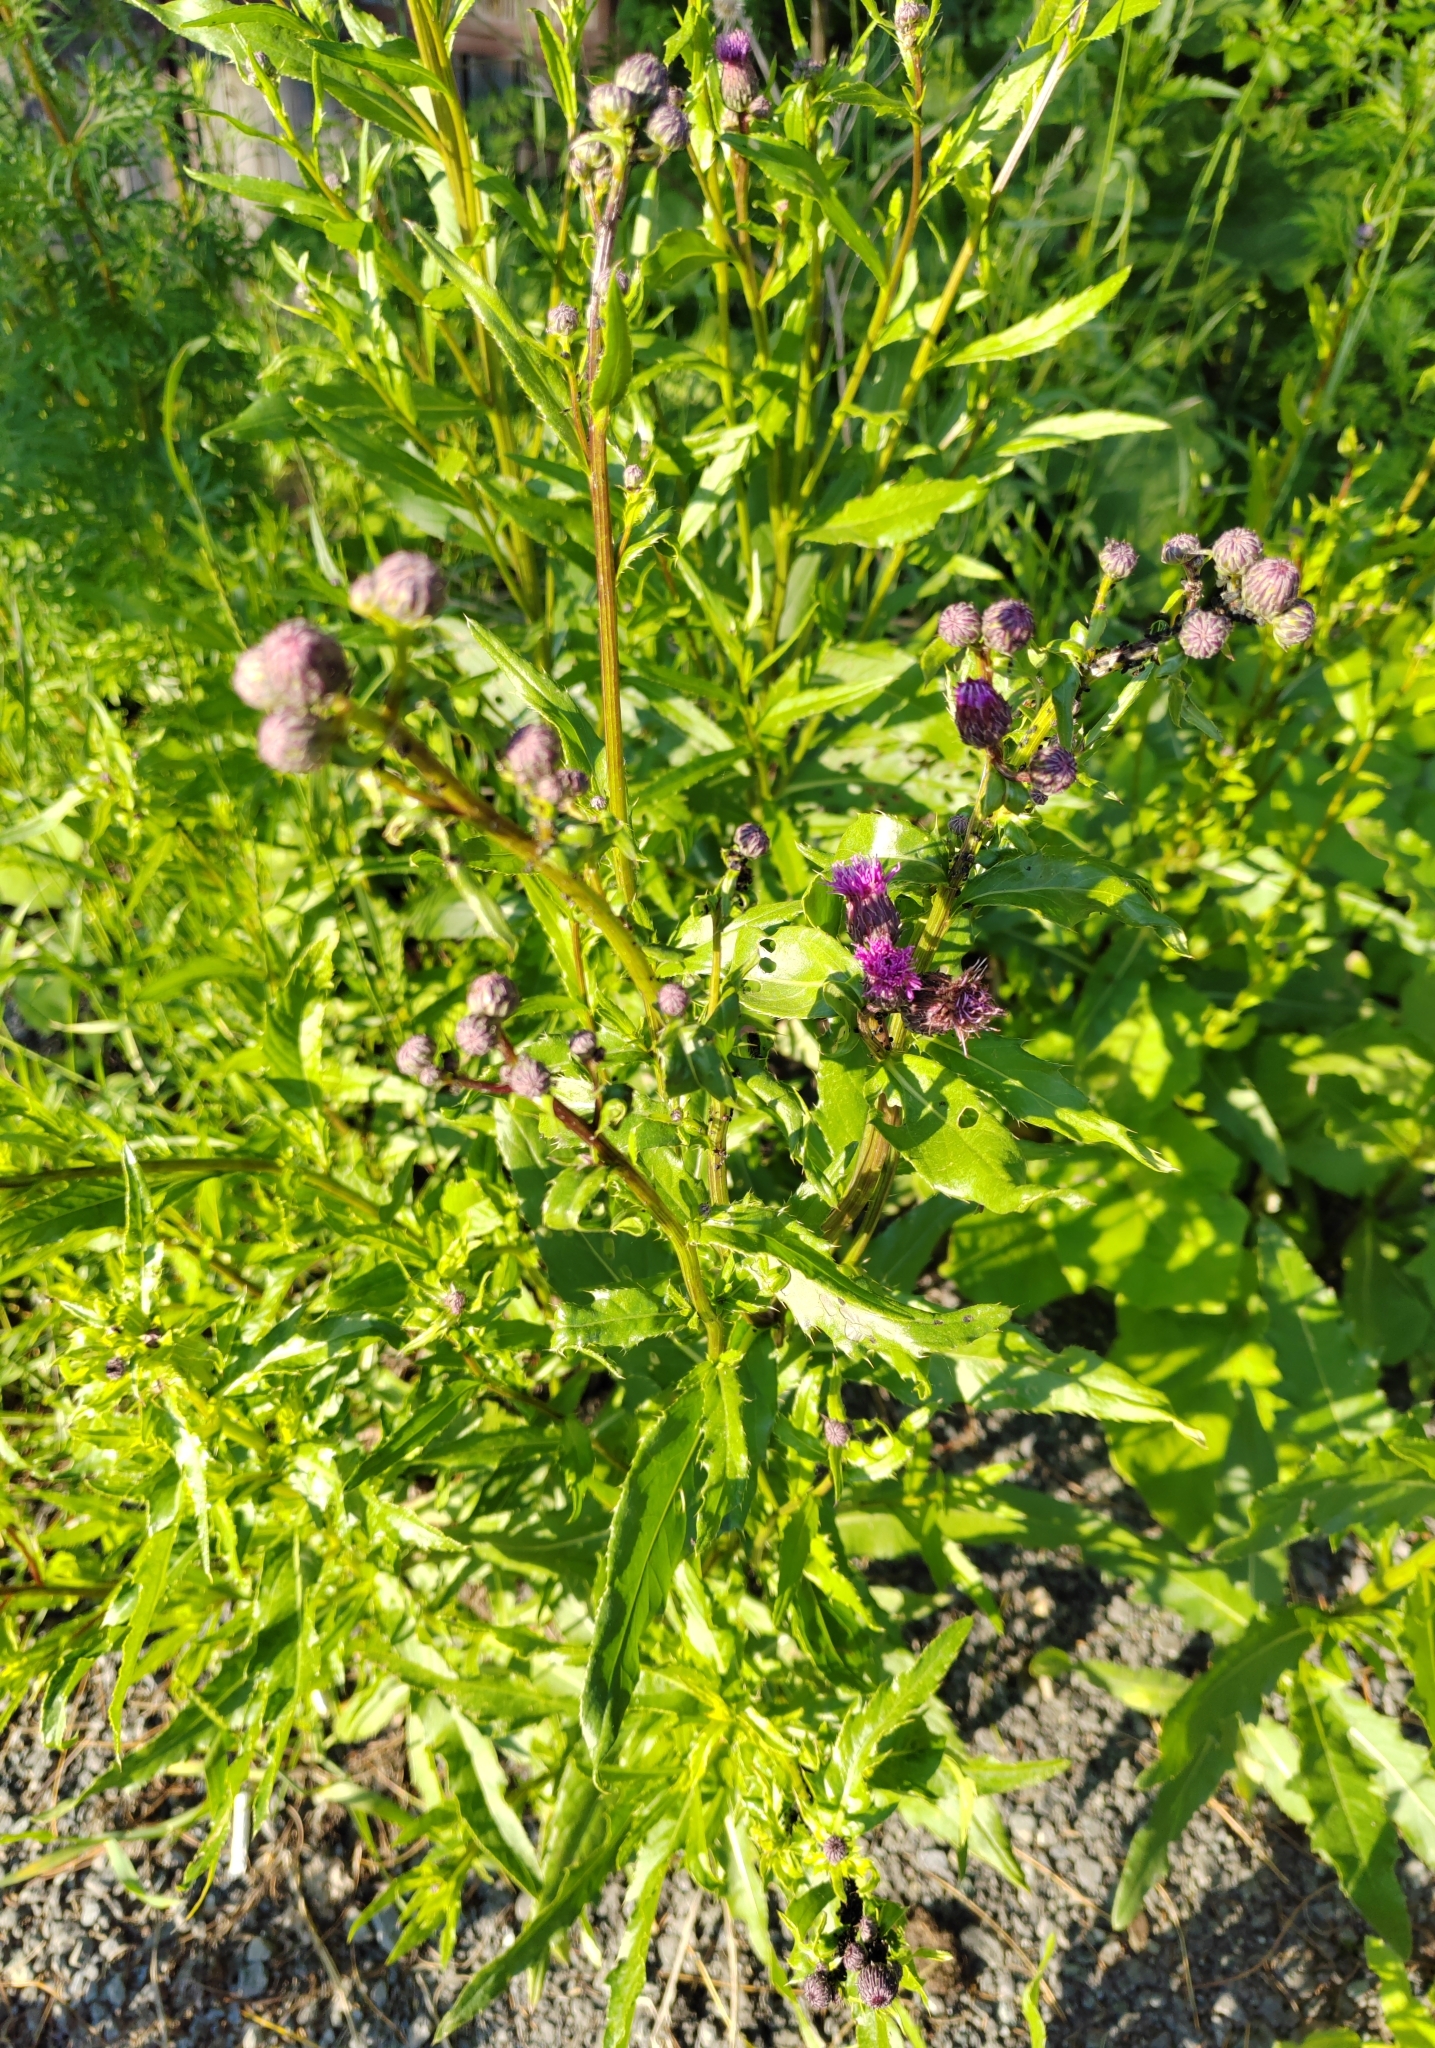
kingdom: Plantae
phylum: Tracheophyta
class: Magnoliopsida
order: Asterales
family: Asteraceae
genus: Cirsium
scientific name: Cirsium arvense
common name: Creeping thistle
